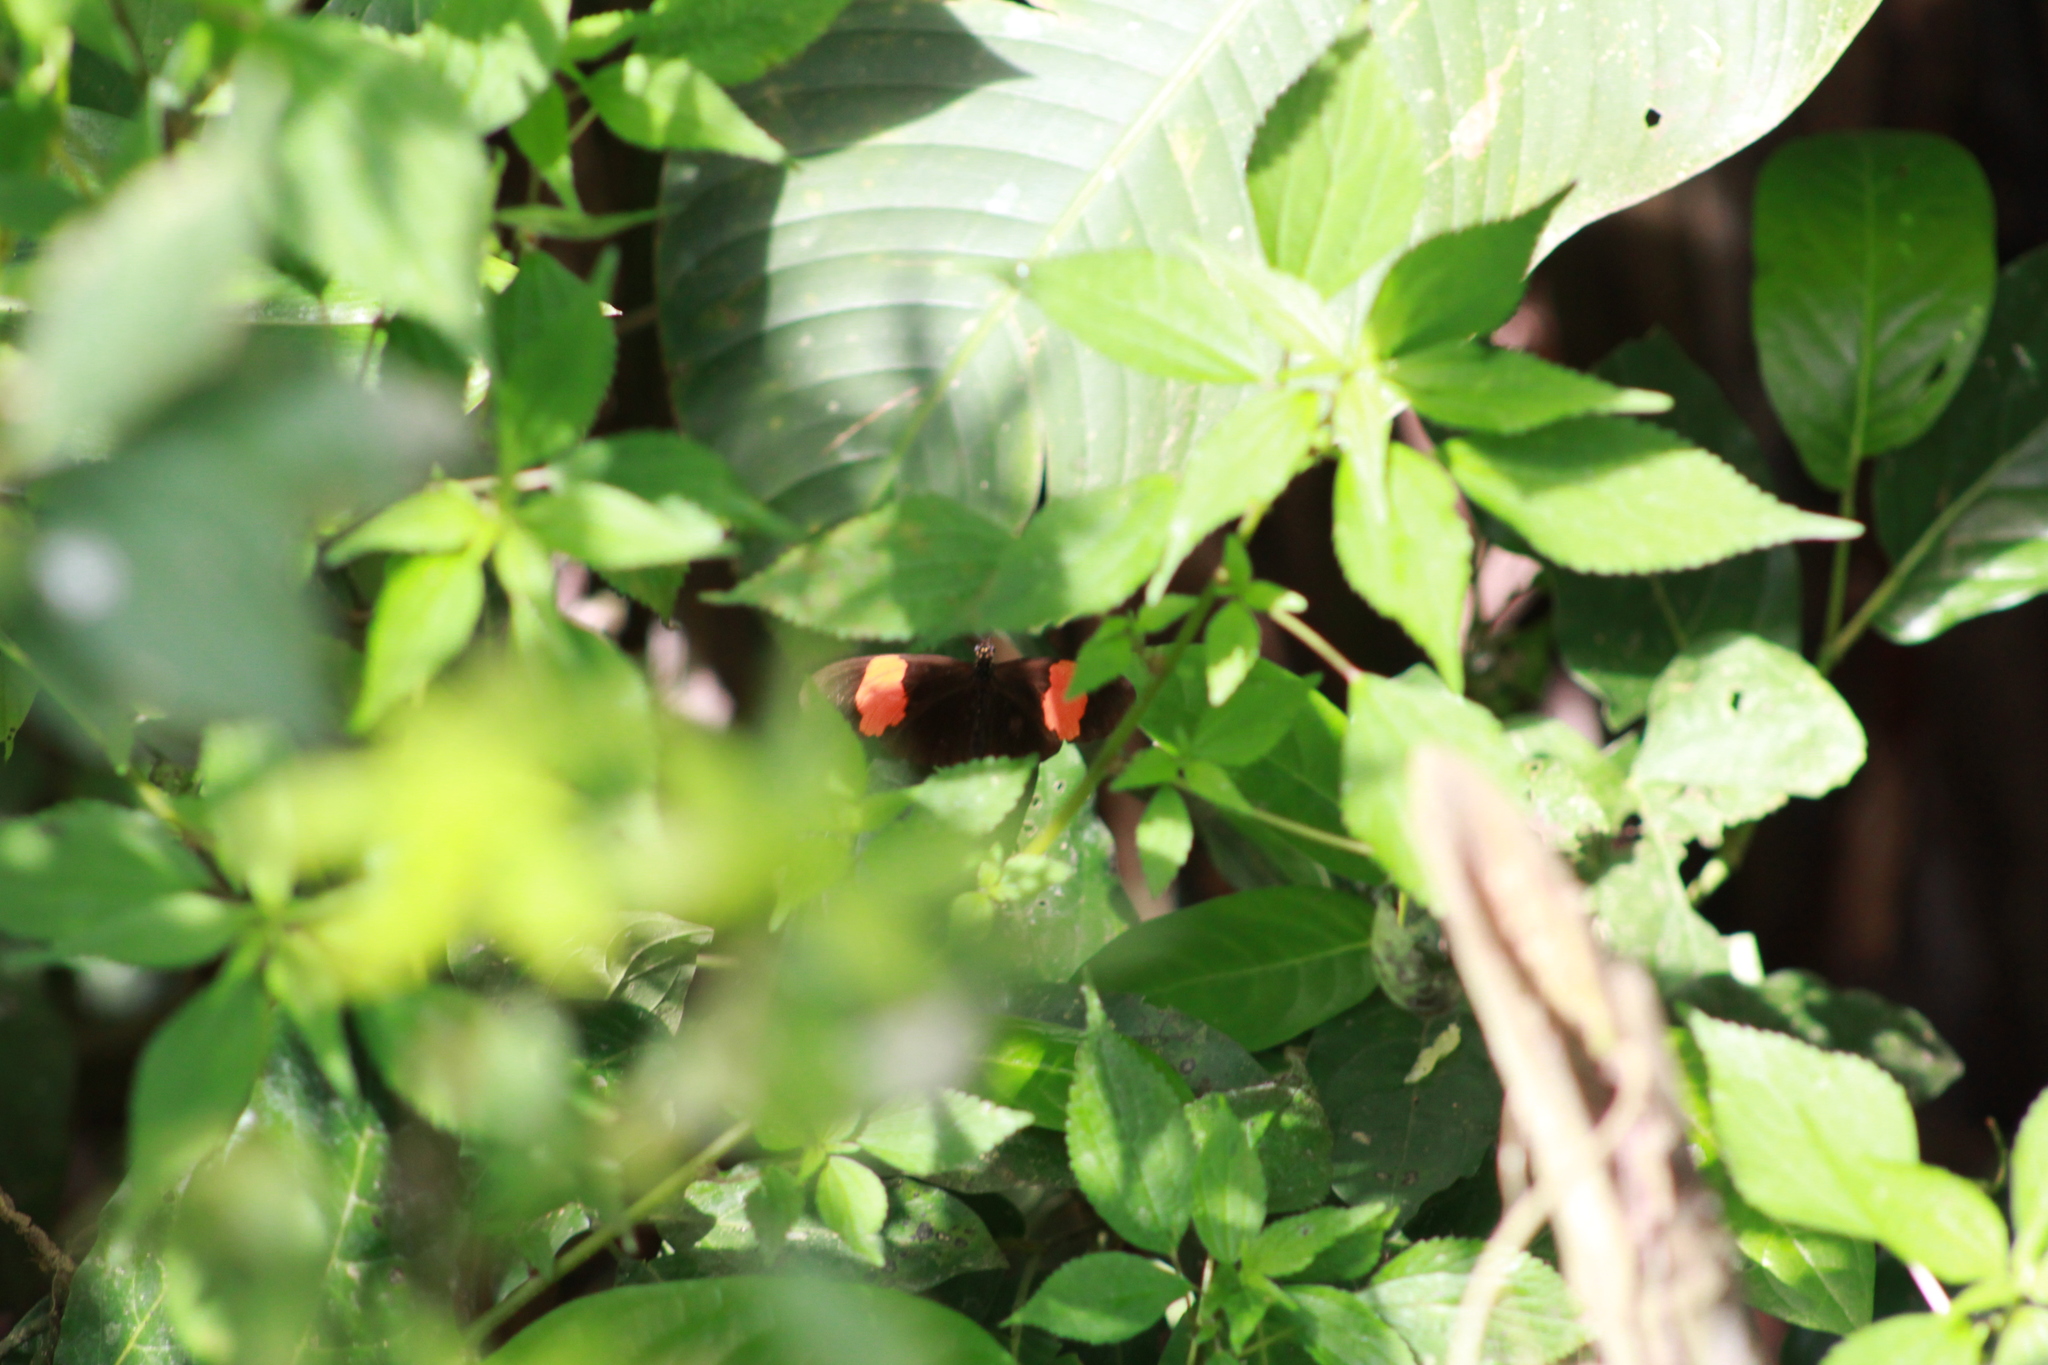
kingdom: Animalia
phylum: Arthropoda
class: Insecta
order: Lepidoptera
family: Nymphalidae
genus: Heliconius
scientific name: Heliconius erato
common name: Common patch longwing
